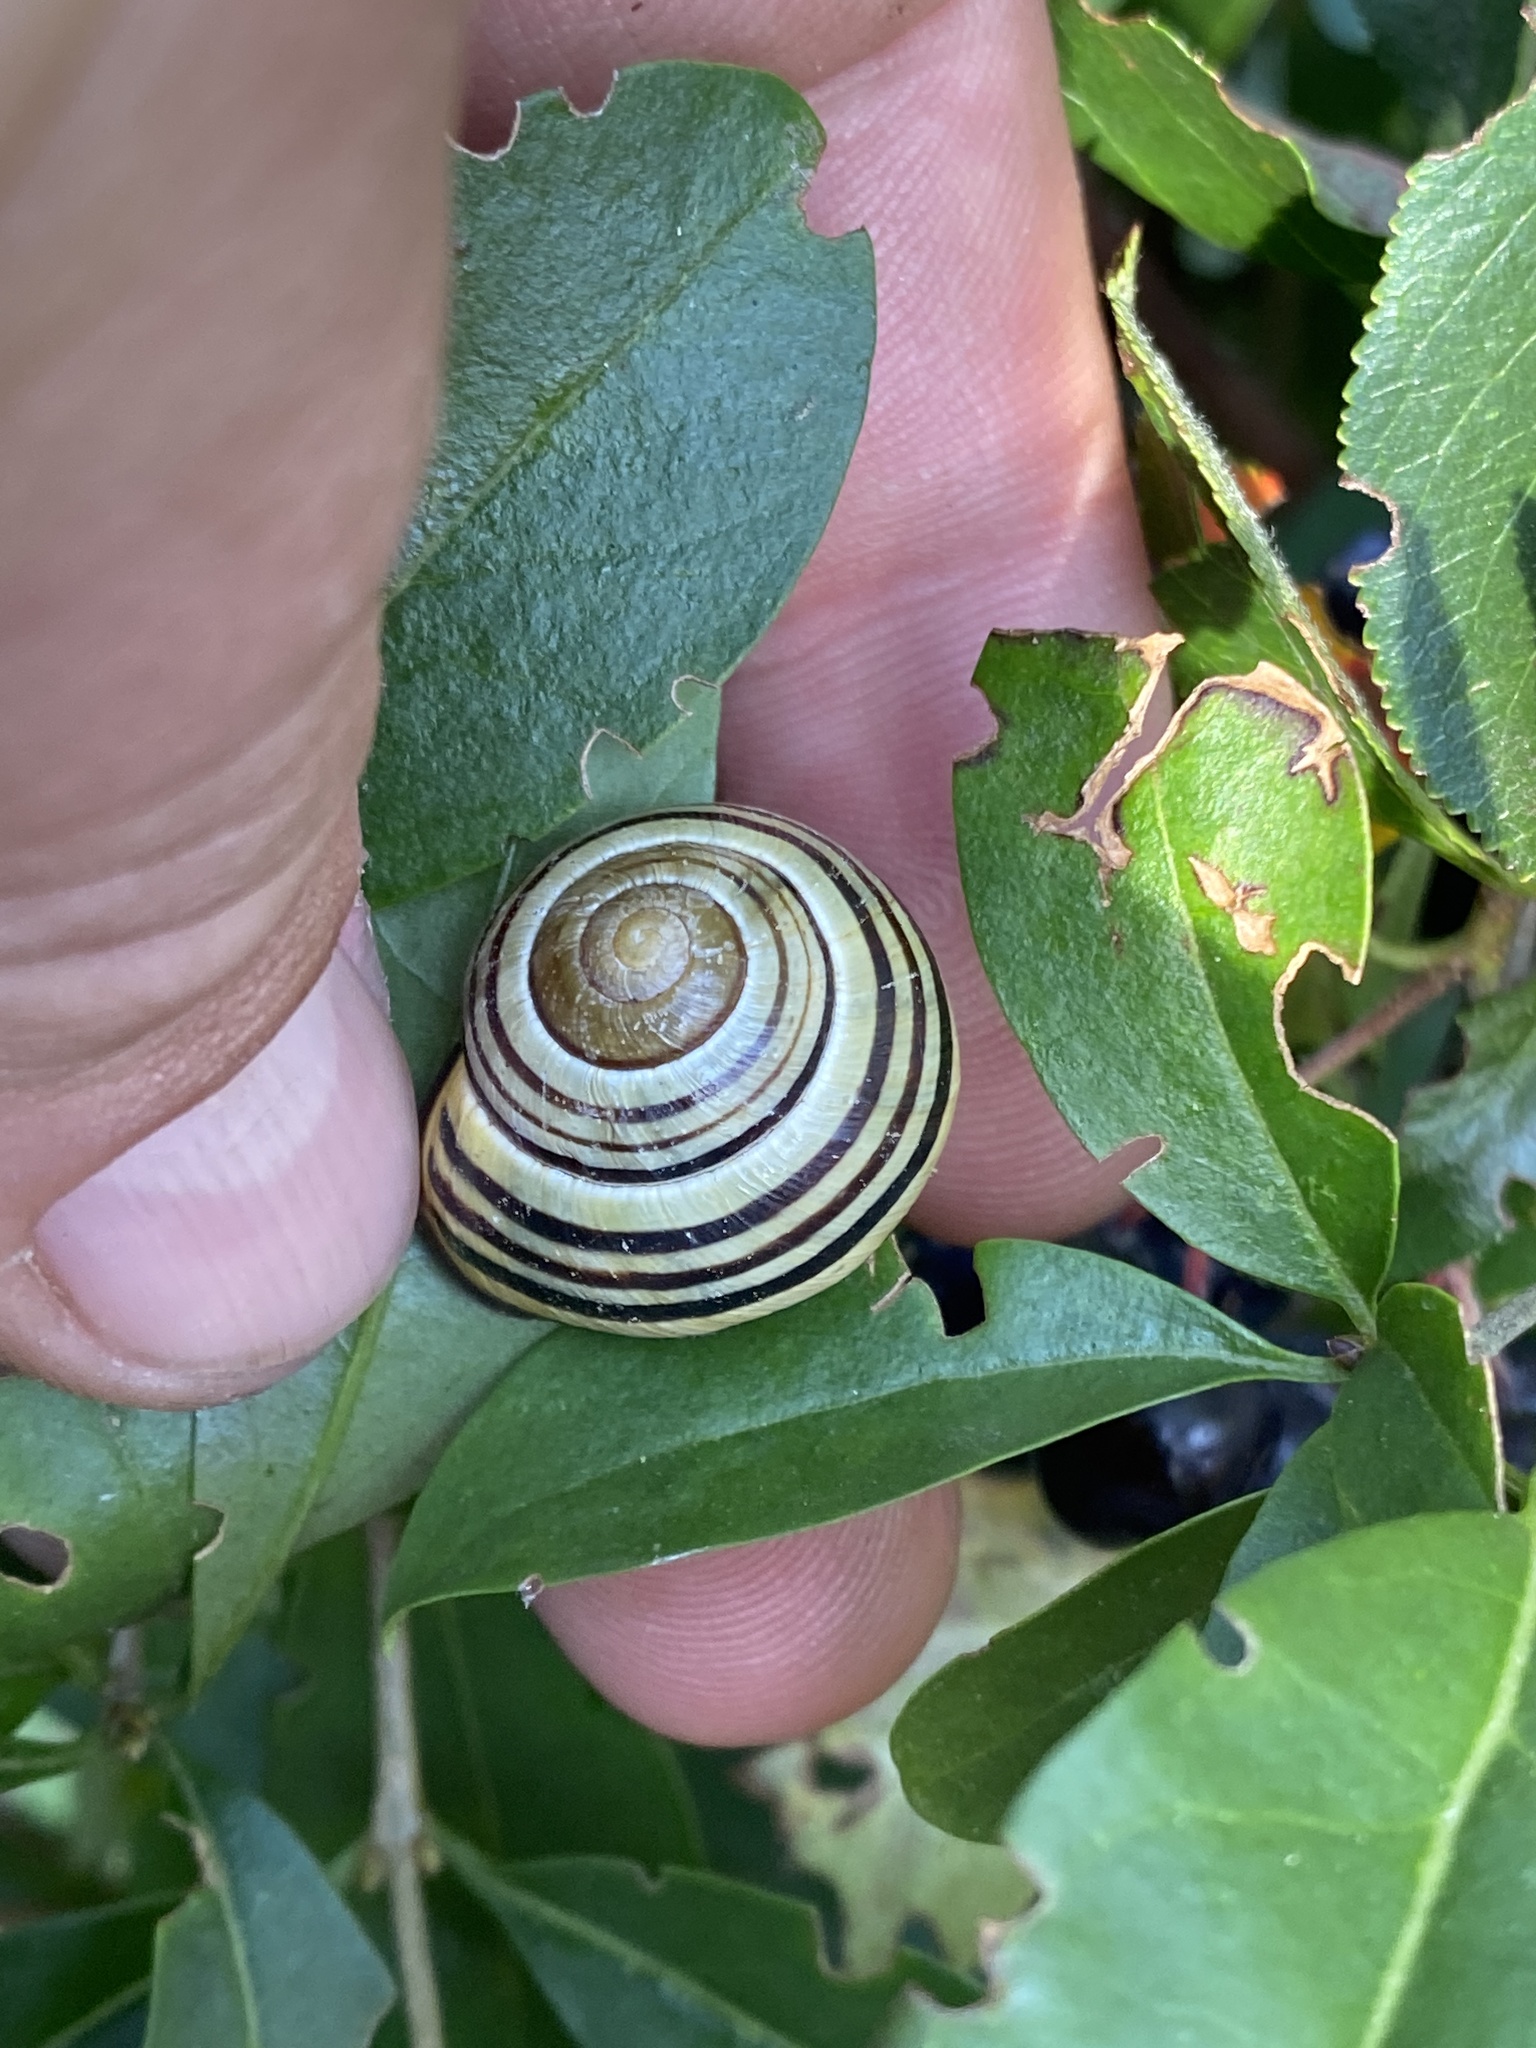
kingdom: Animalia
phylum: Mollusca
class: Gastropoda
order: Stylommatophora
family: Helicidae
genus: Cepaea
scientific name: Cepaea nemoralis
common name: Grovesnail
